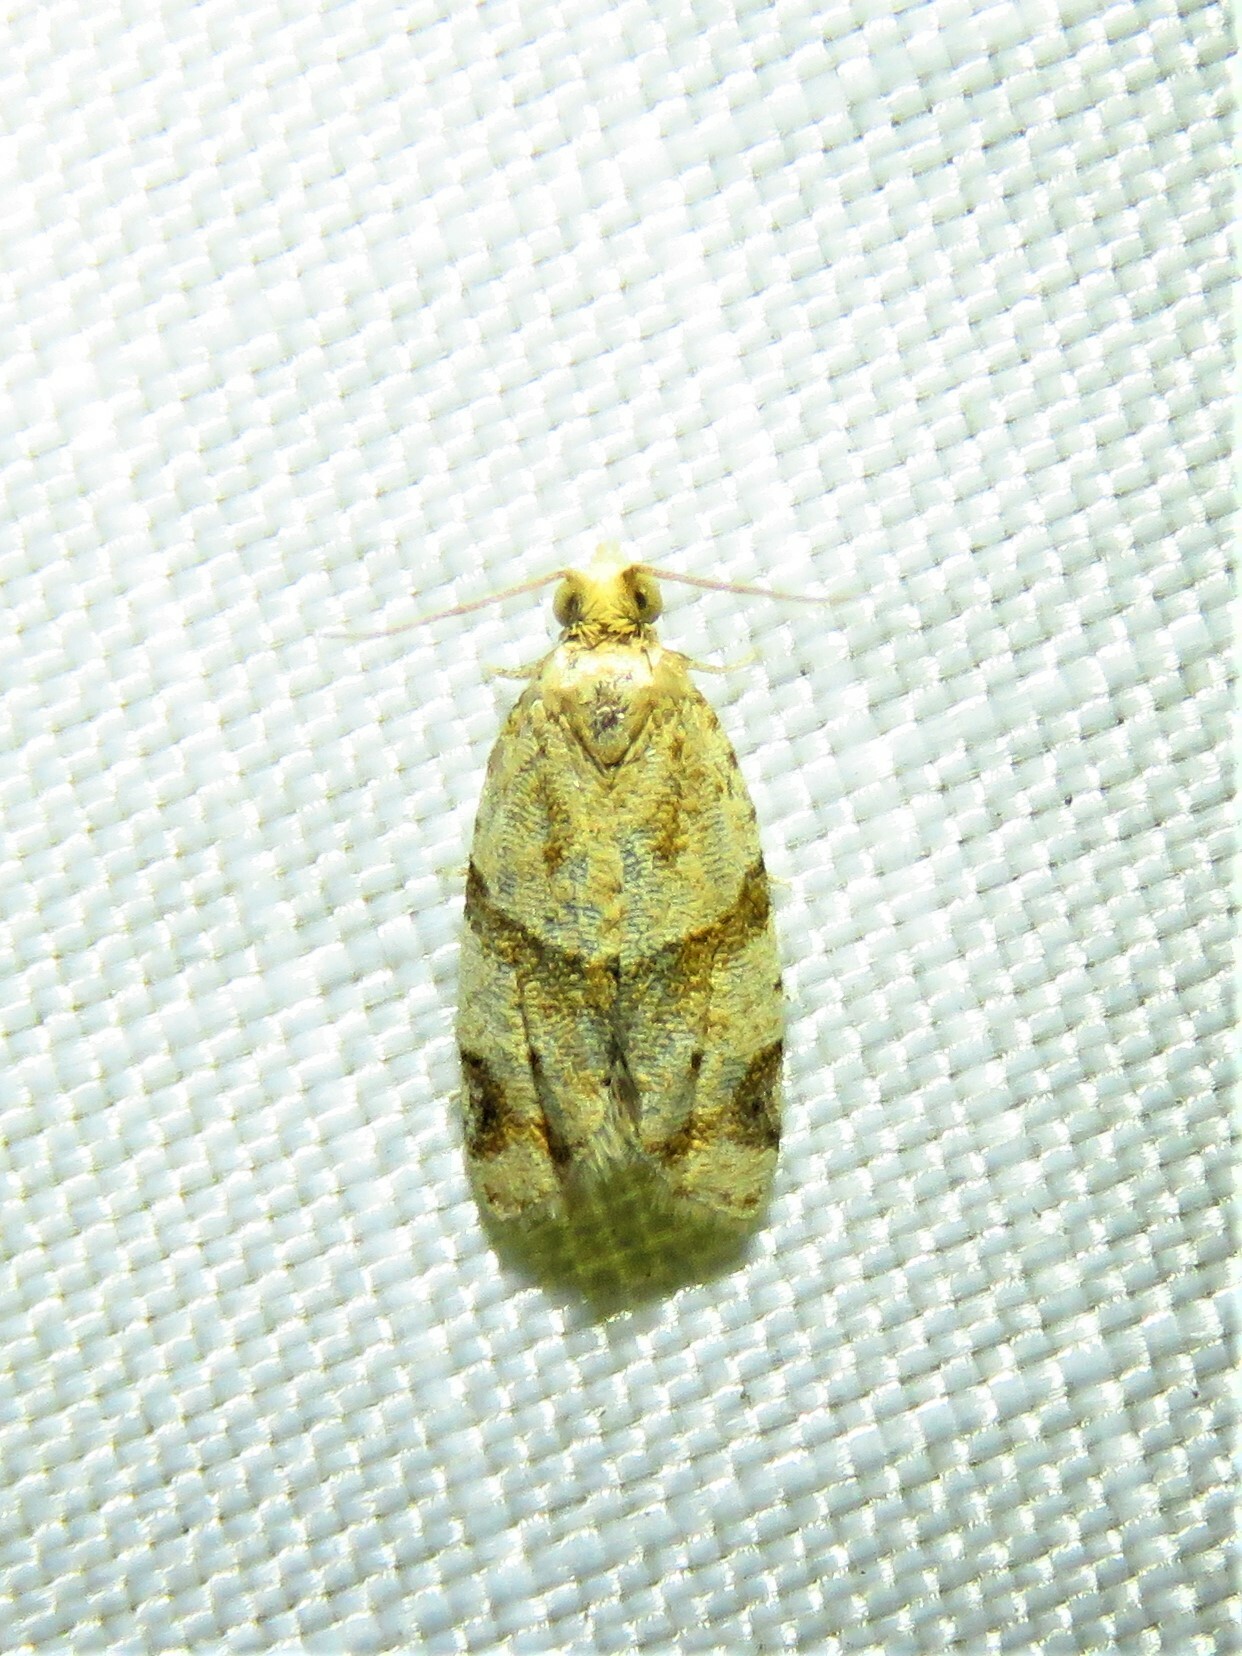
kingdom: Animalia
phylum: Arthropoda
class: Insecta
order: Lepidoptera
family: Tortricidae
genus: Clepsis
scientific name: Clepsis peritana
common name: Garden tortrix
